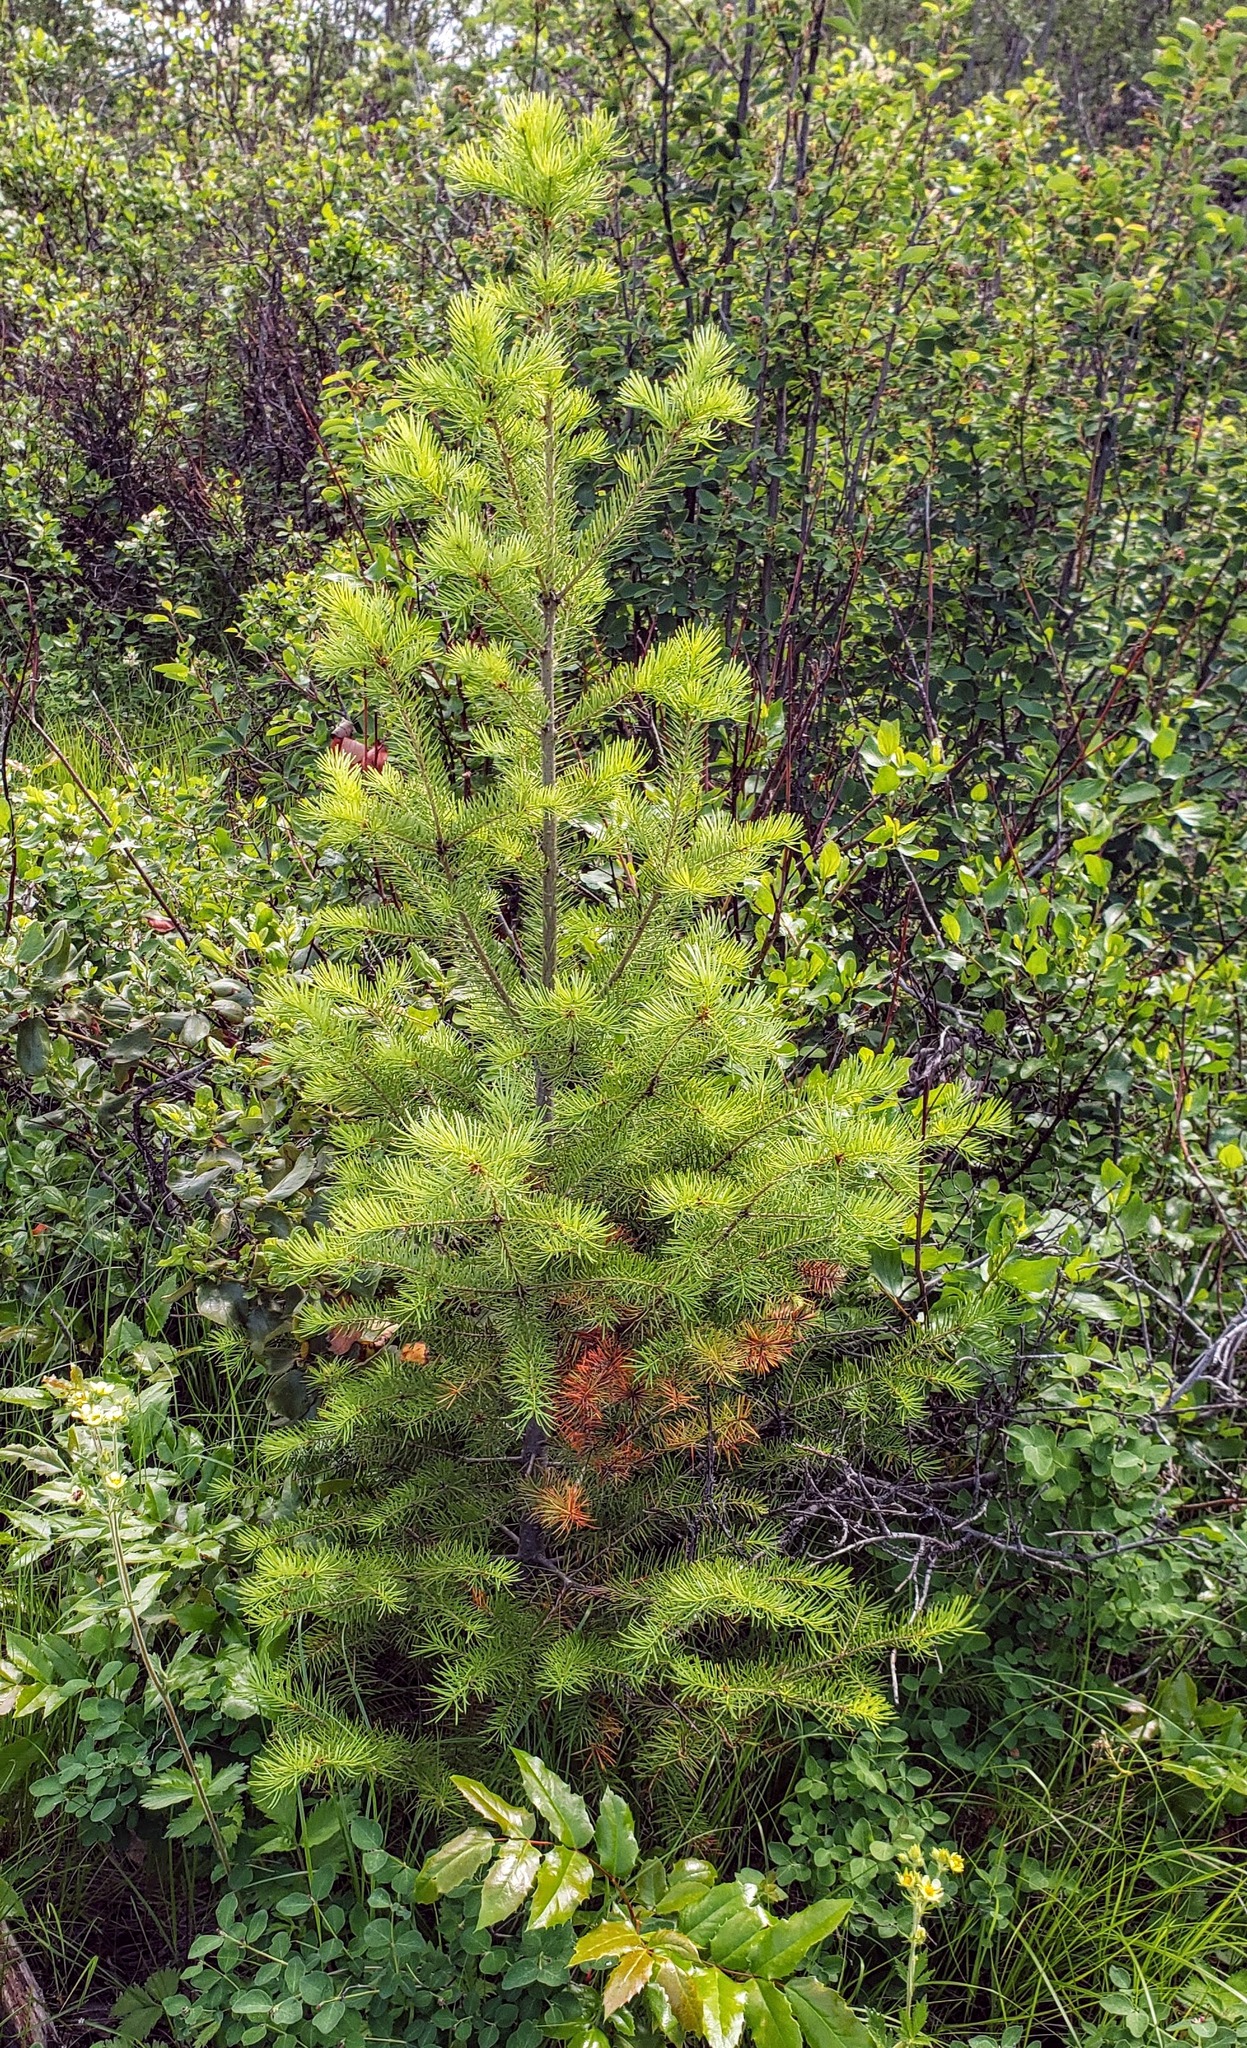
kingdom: Plantae
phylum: Tracheophyta
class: Pinopsida
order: Pinales
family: Pinaceae
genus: Pseudotsuga
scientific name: Pseudotsuga menziesii
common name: Douglas fir
